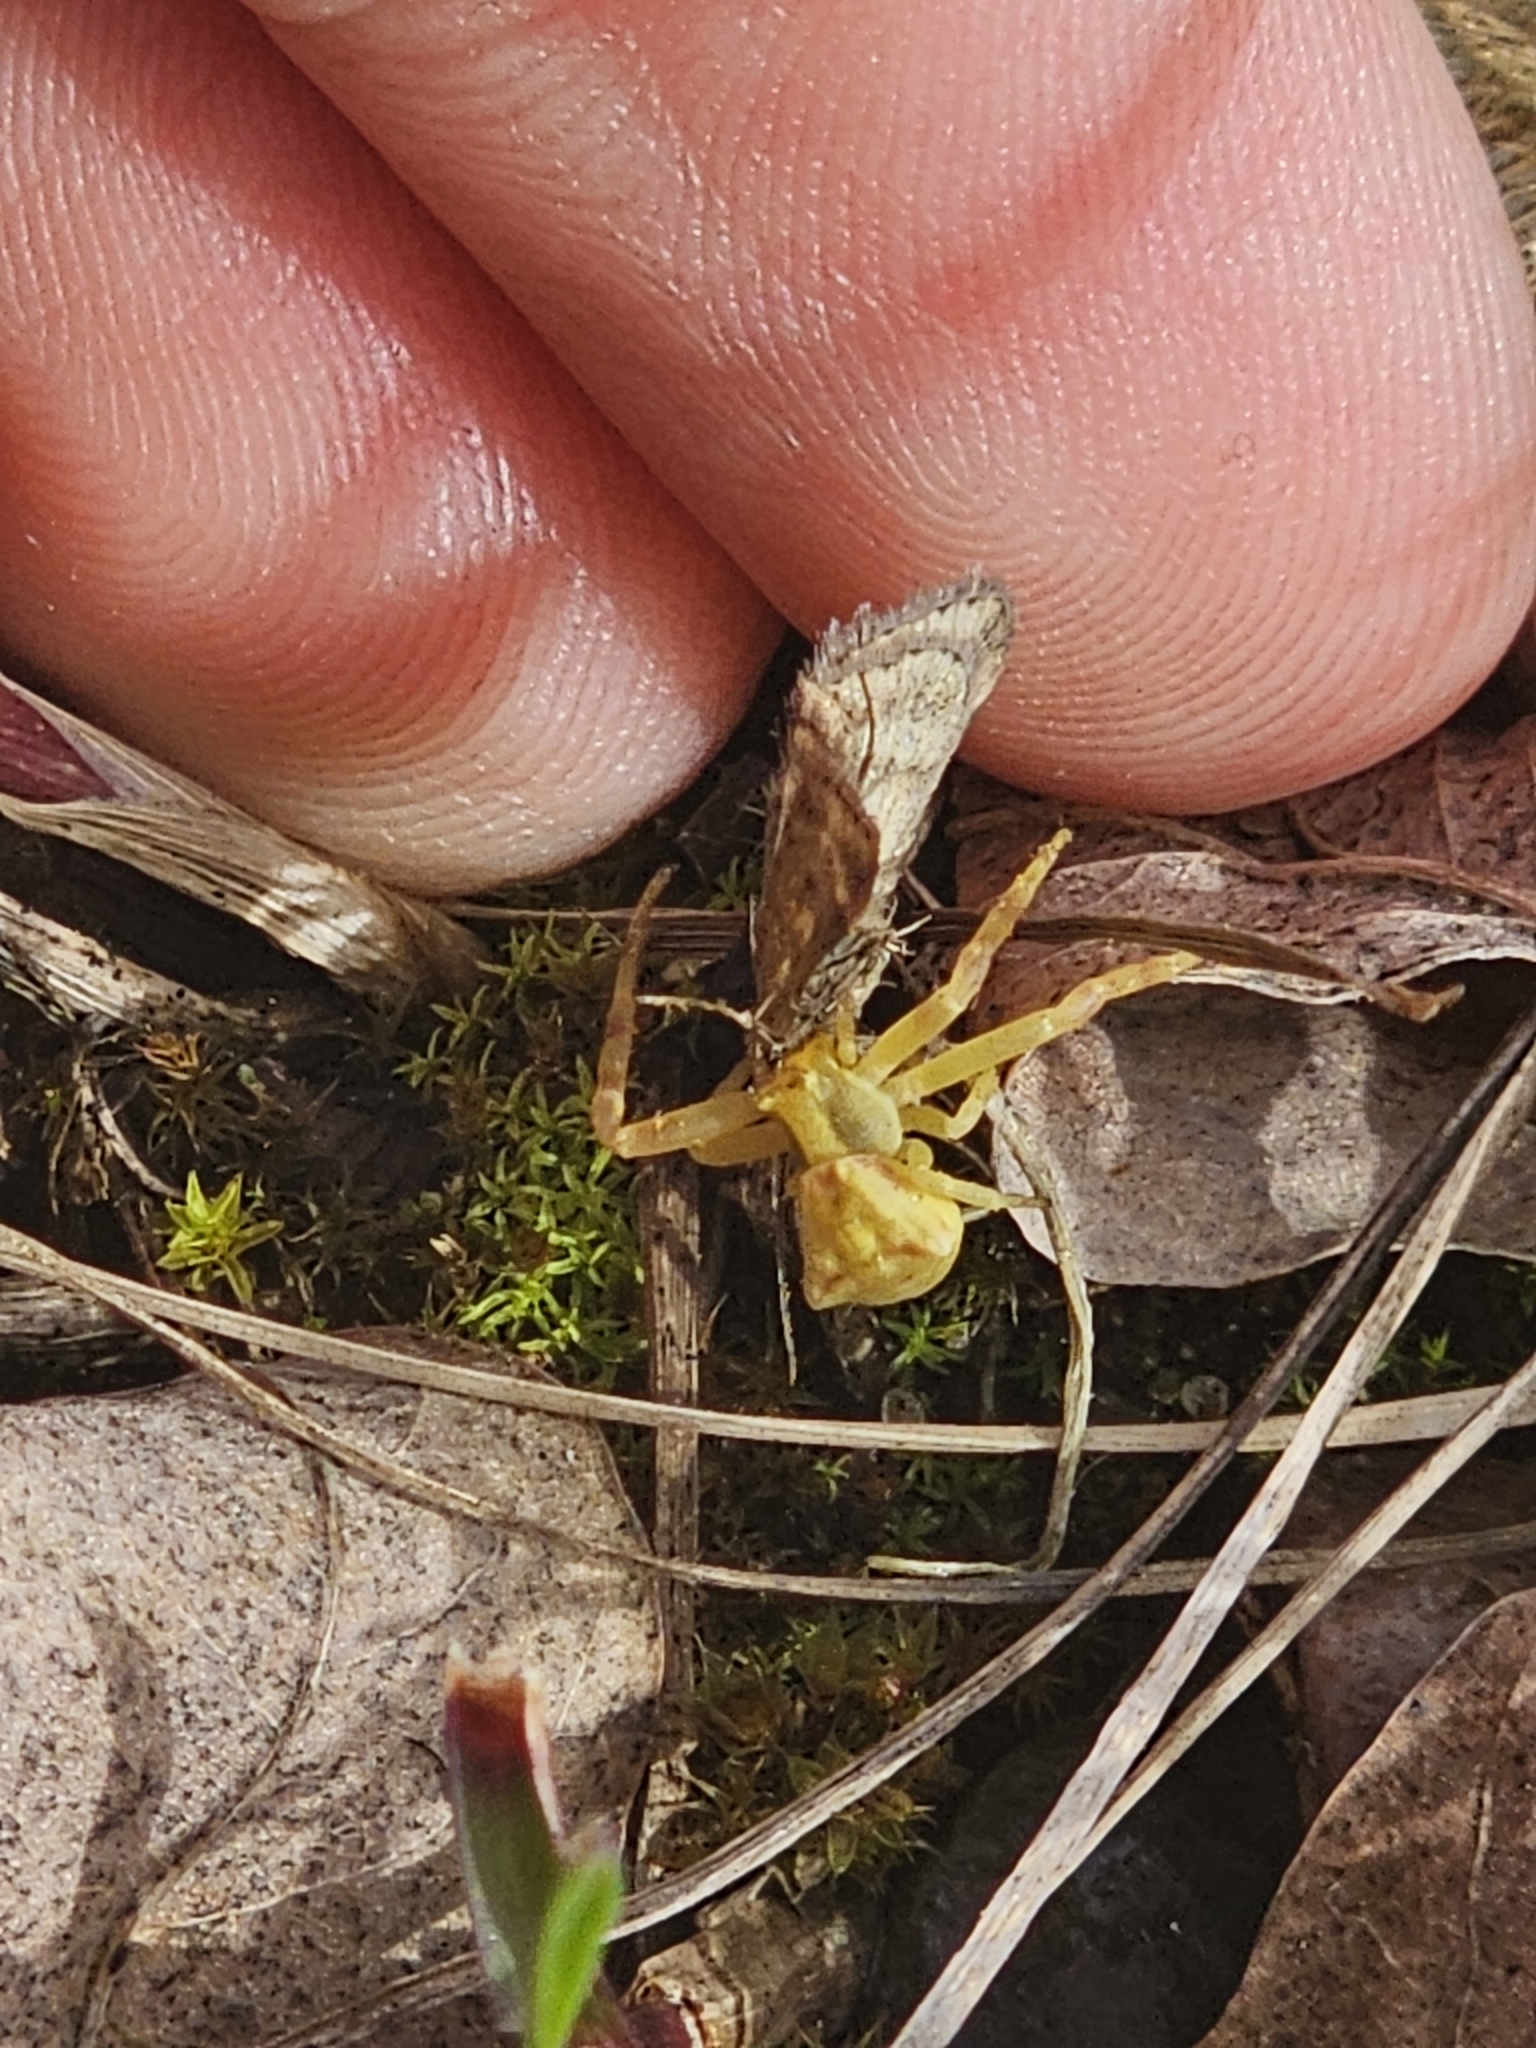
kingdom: Animalia
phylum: Arthropoda
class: Arachnida
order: Araneae
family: Thomisidae
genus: Thomisus
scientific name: Thomisus onustus
